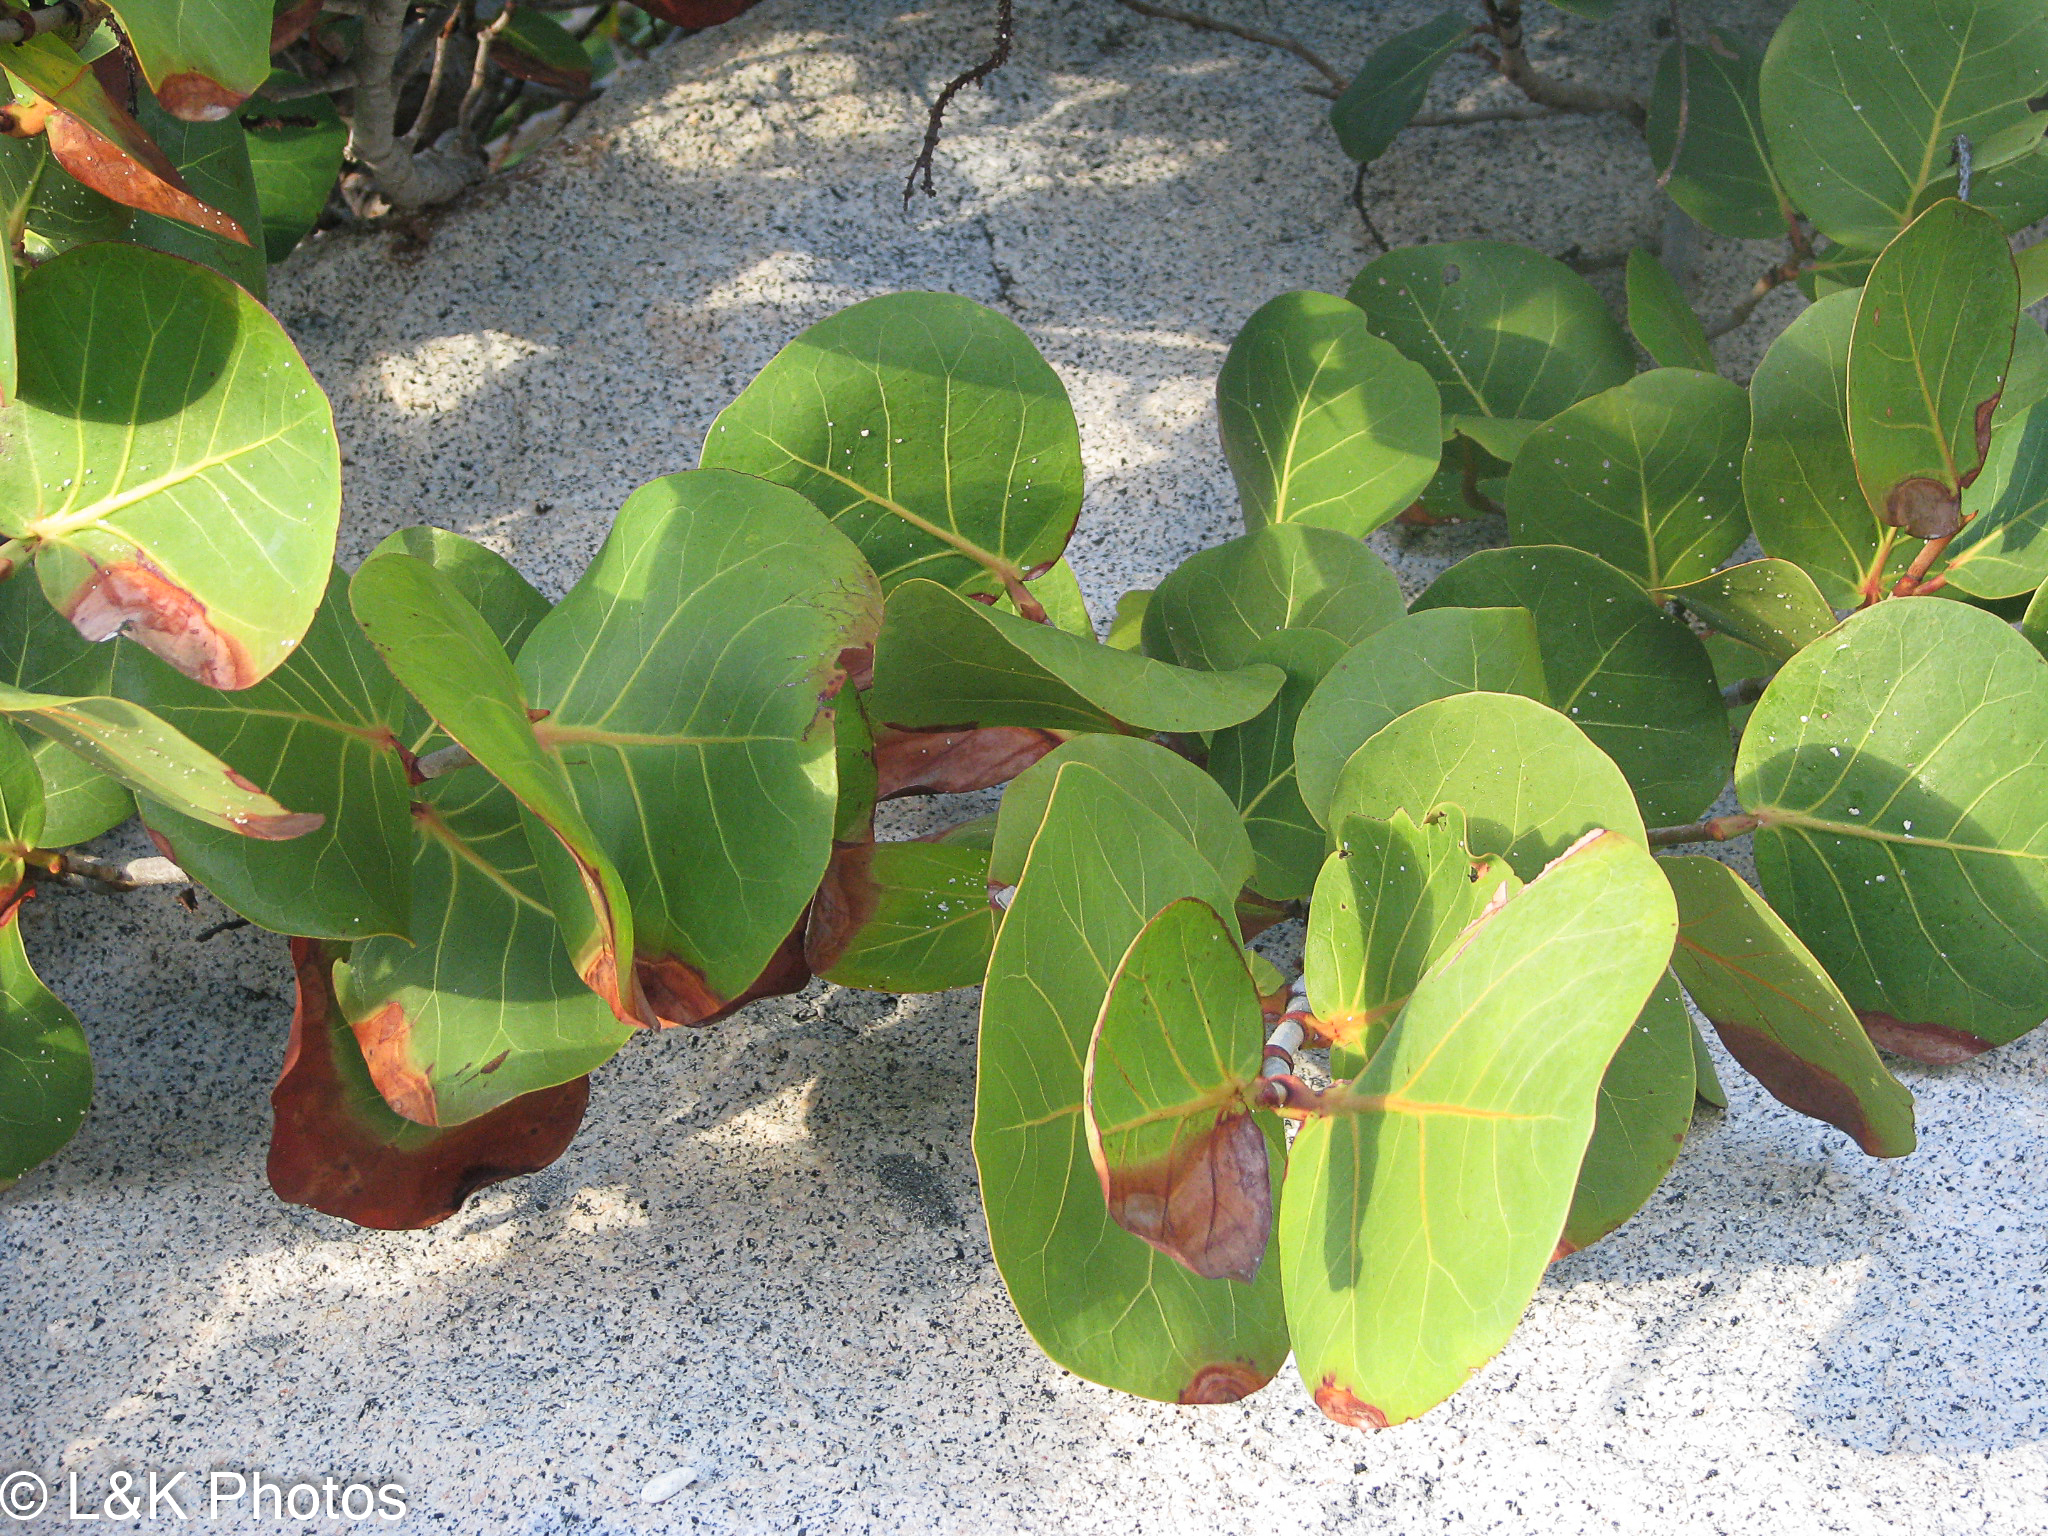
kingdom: Plantae
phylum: Tracheophyta
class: Magnoliopsida
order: Caryophyllales
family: Polygonaceae
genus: Coccoloba
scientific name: Coccoloba uvifera
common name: Seagrape
